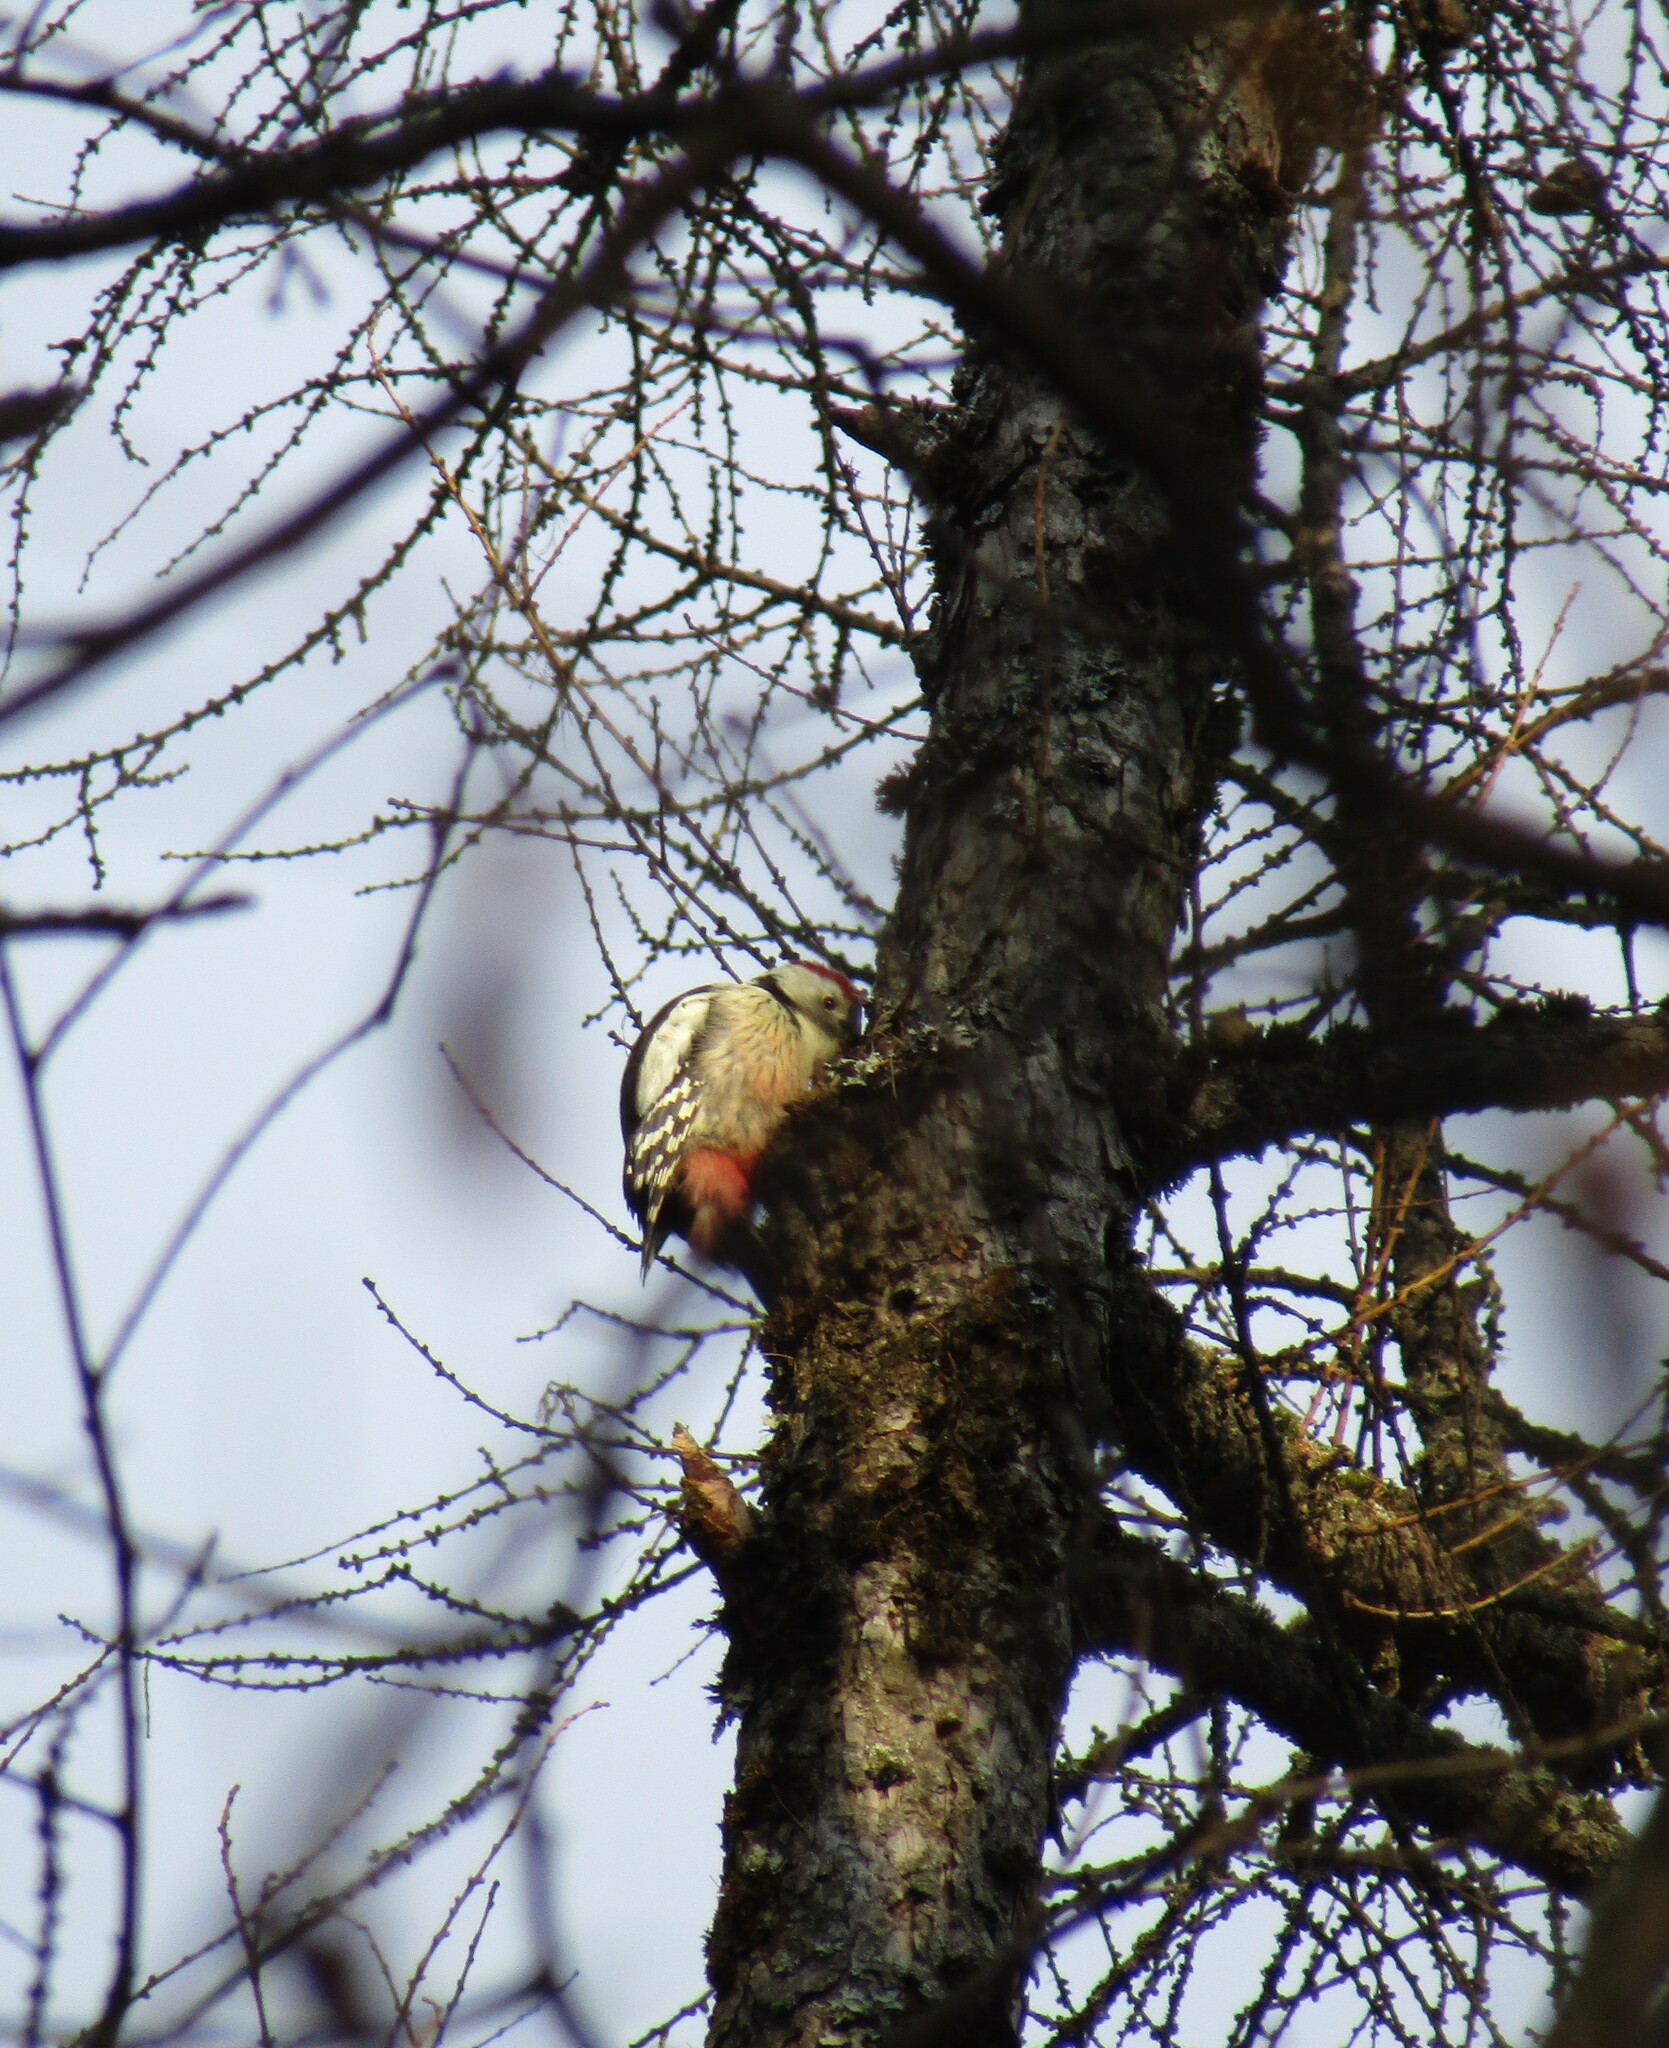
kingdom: Animalia
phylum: Chordata
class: Aves
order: Piciformes
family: Picidae
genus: Dendrocoptes
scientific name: Dendrocoptes medius
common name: Middle spotted woodpecker
